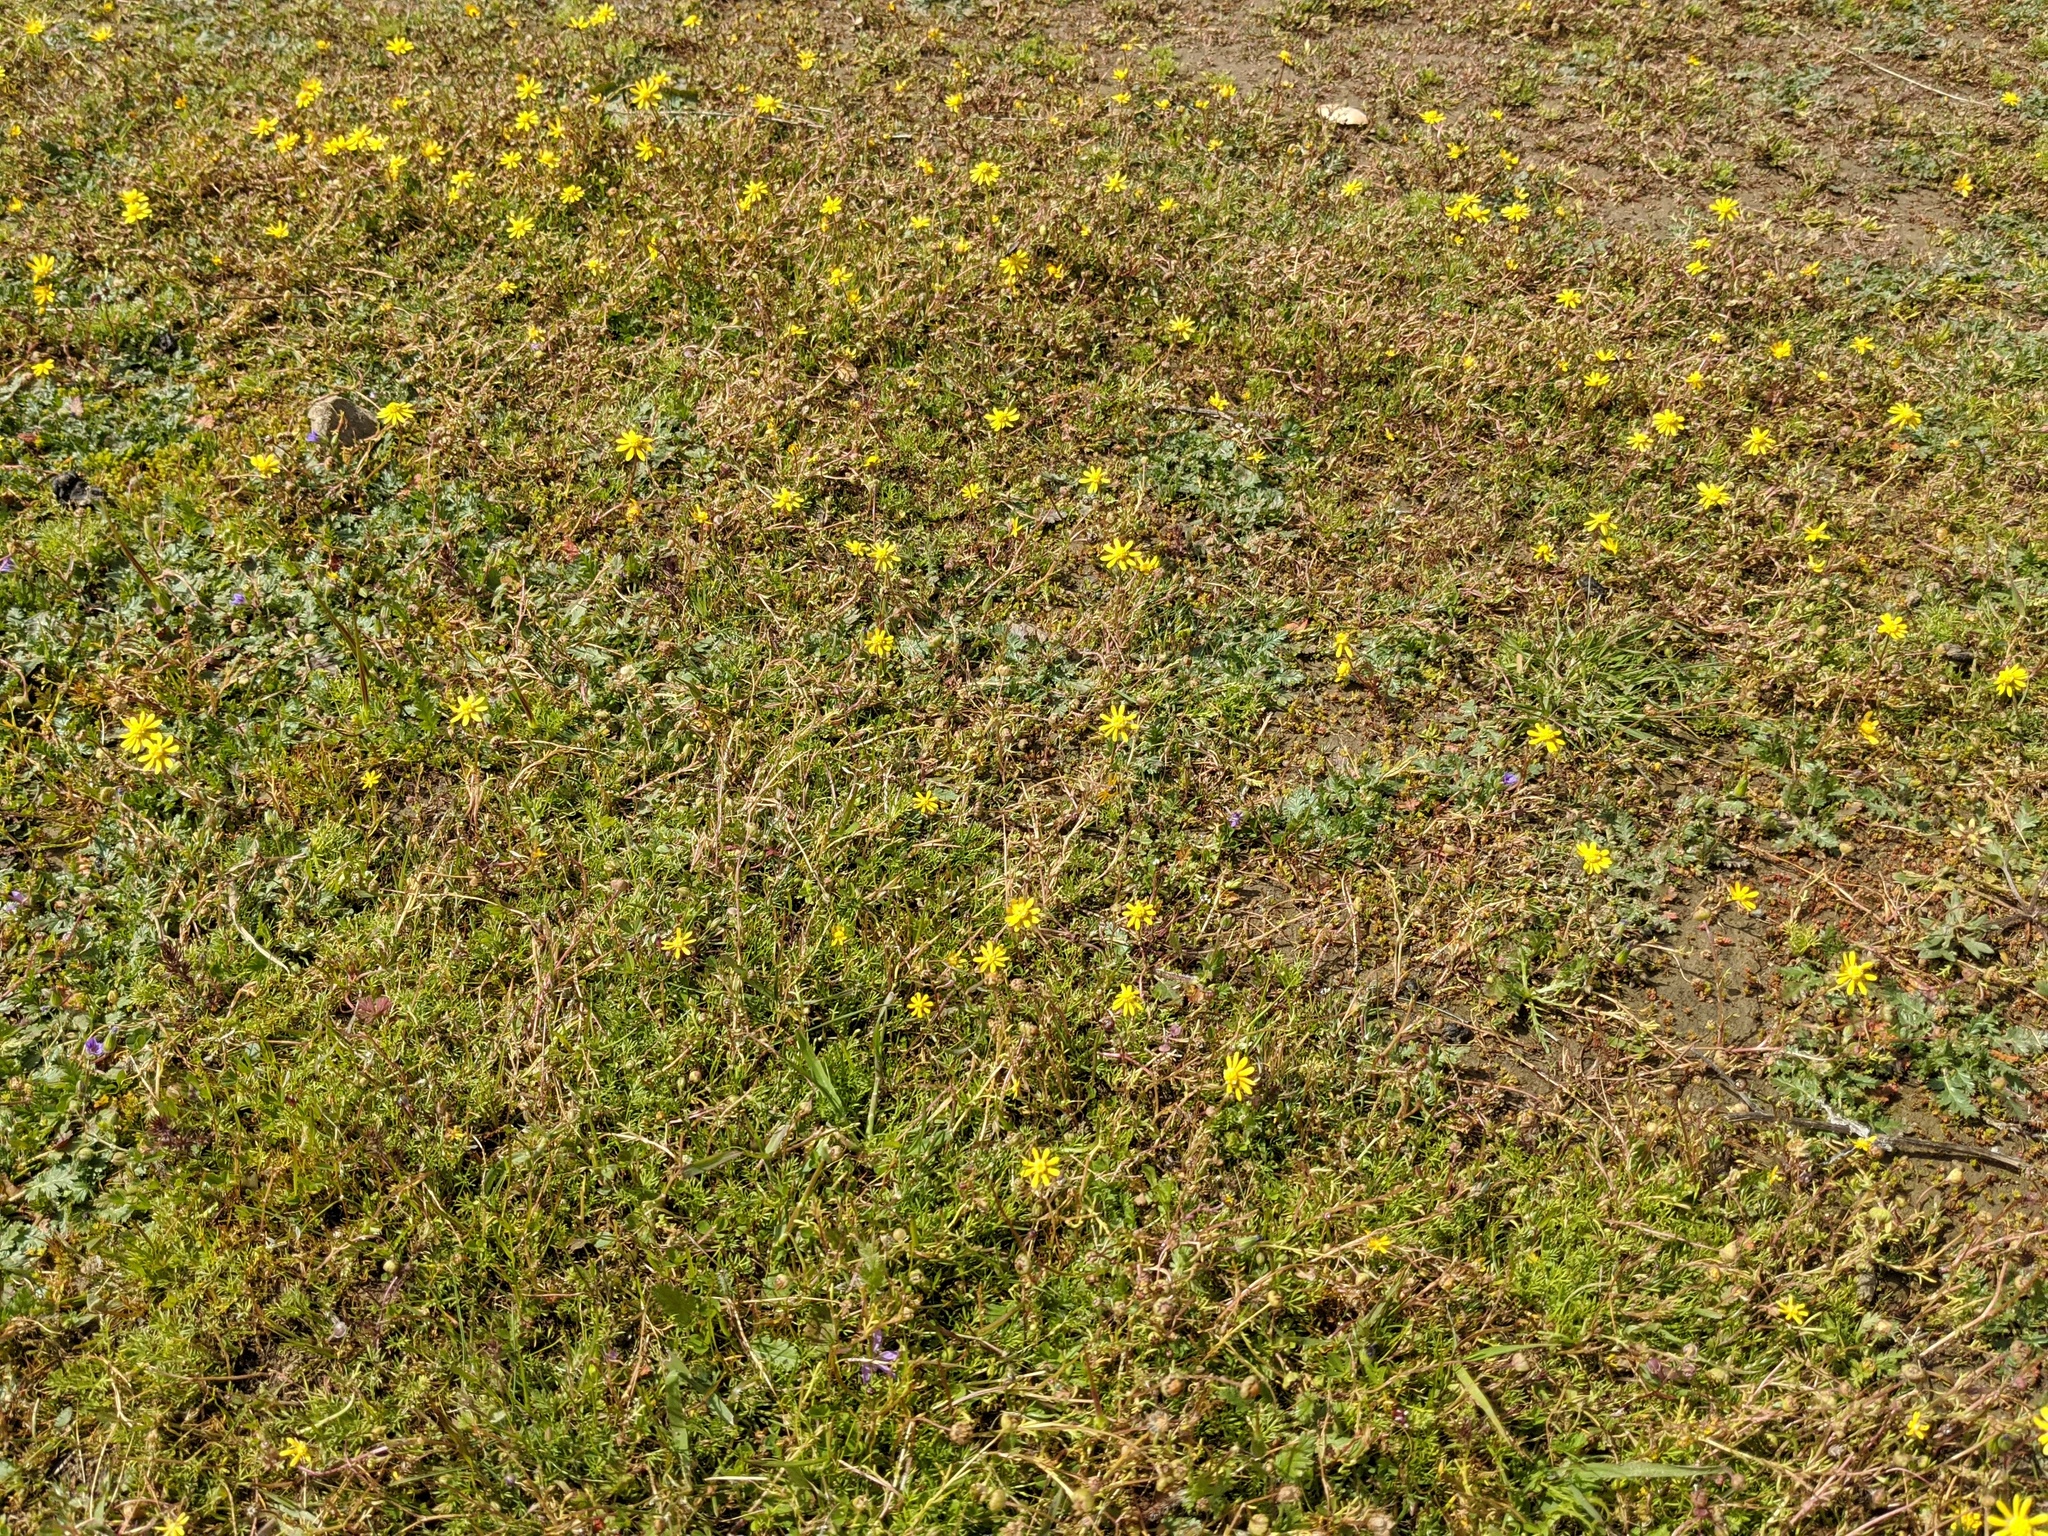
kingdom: Plantae
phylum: Tracheophyta
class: Magnoliopsida
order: Asterales
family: Asteraceae
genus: Blennosperma
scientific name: Blennosperma nanum
